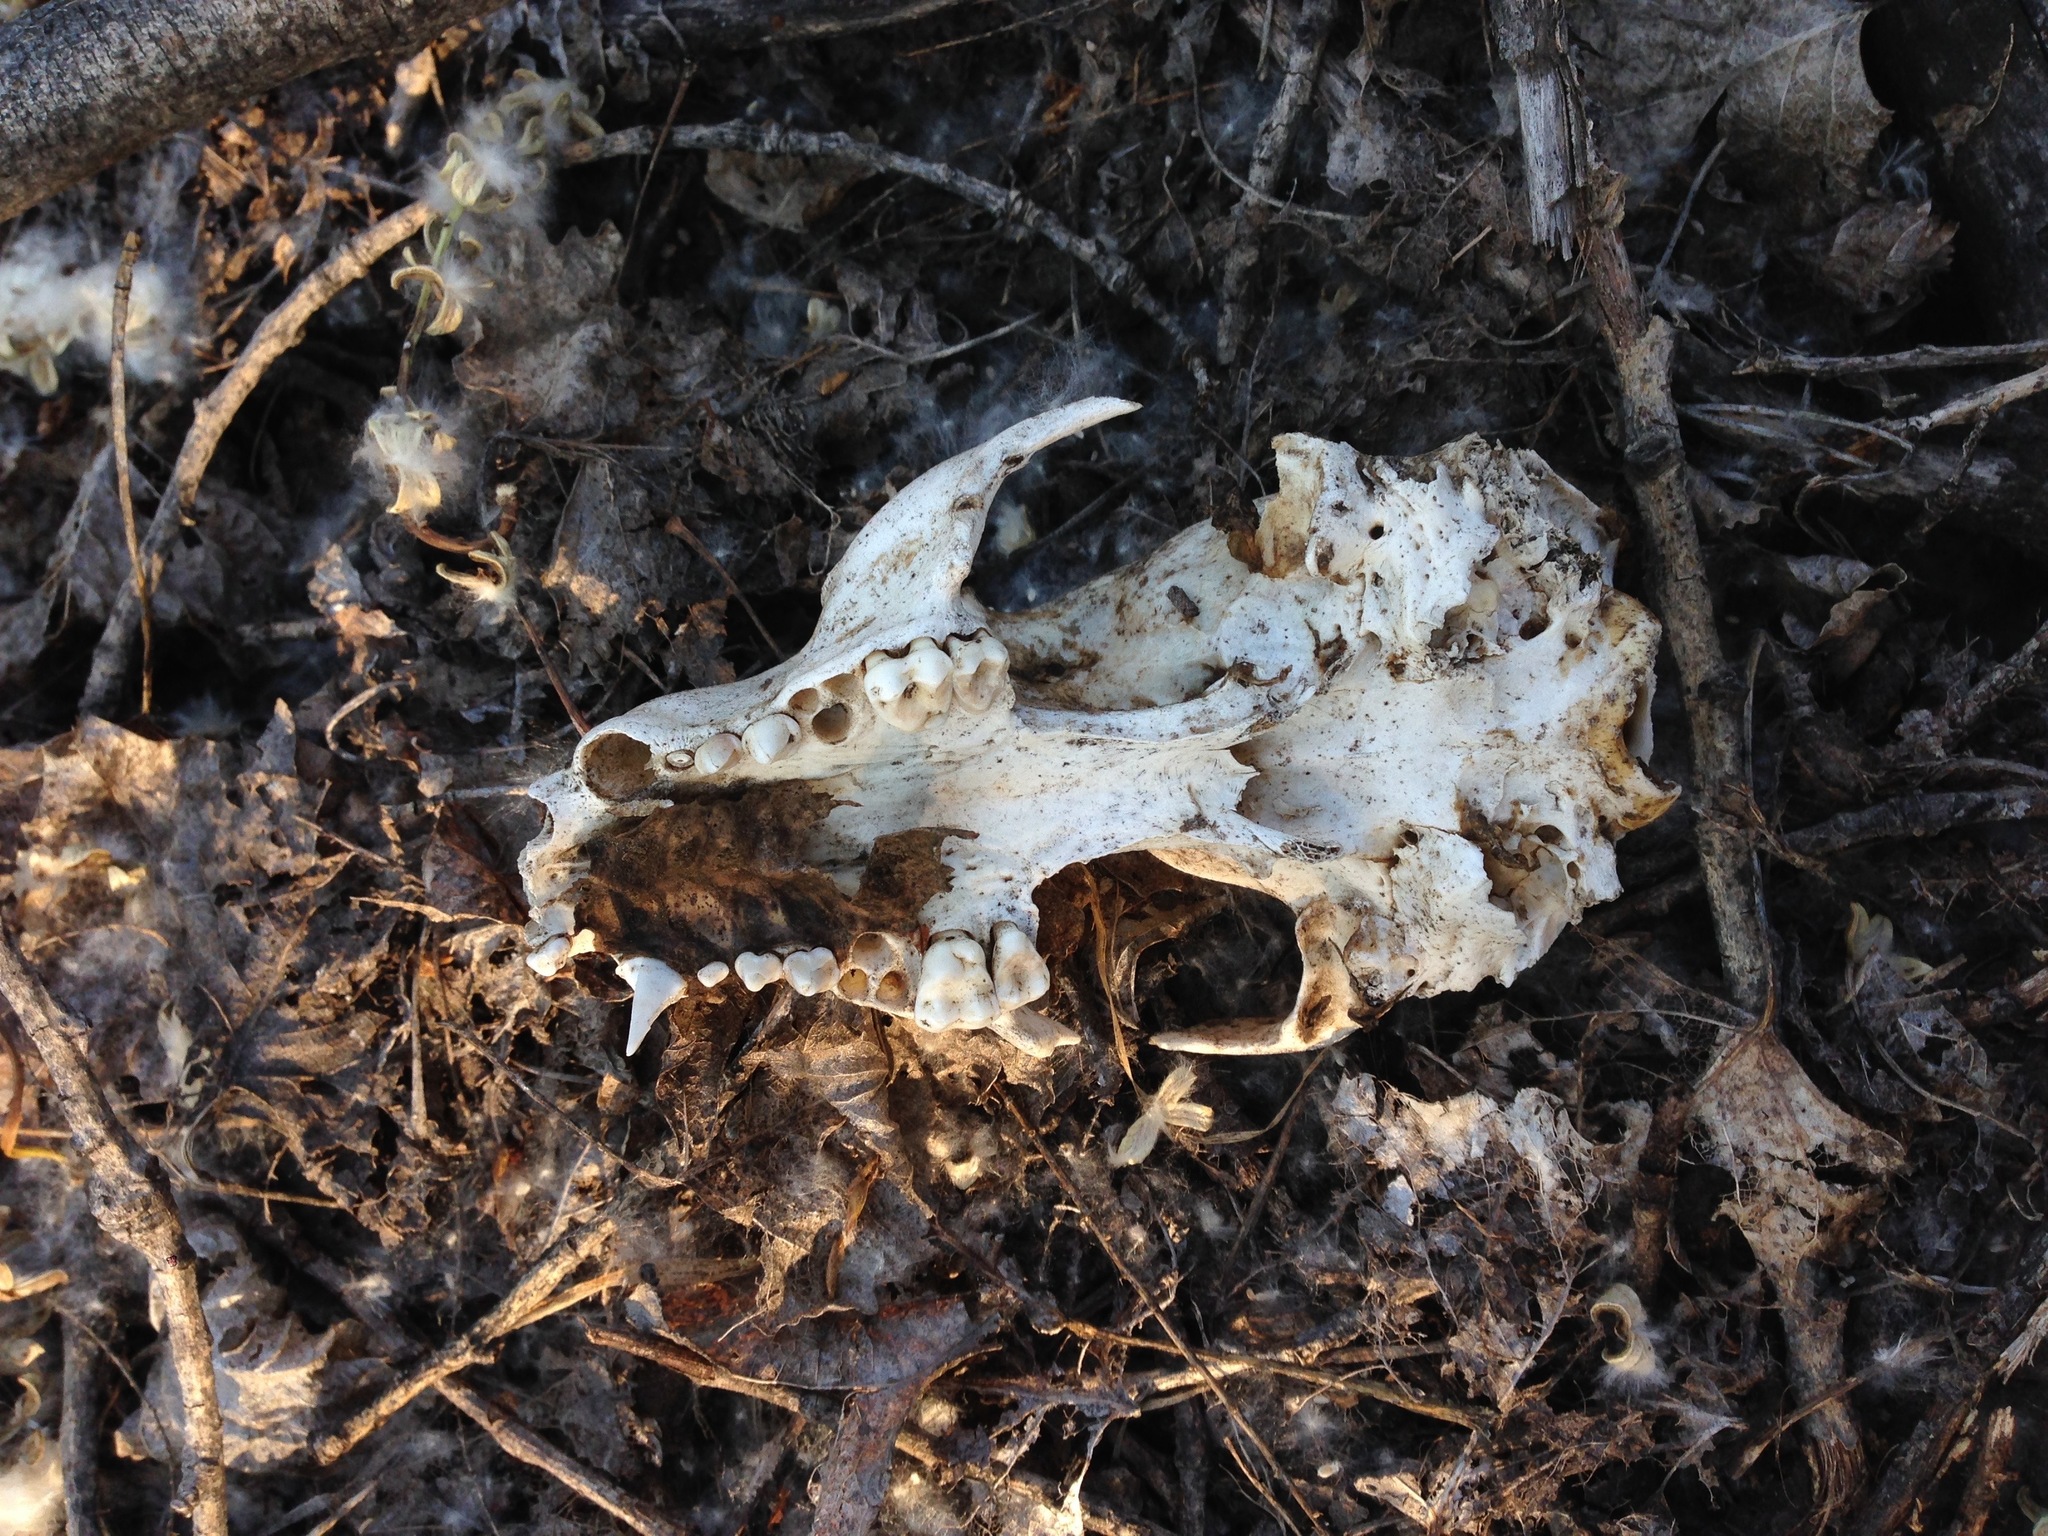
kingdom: Animalia
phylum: Chordata
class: Mammalia
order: Carnivora
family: Procyonidae
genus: Procyon
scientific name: Procyon lotor
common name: Raccoon
